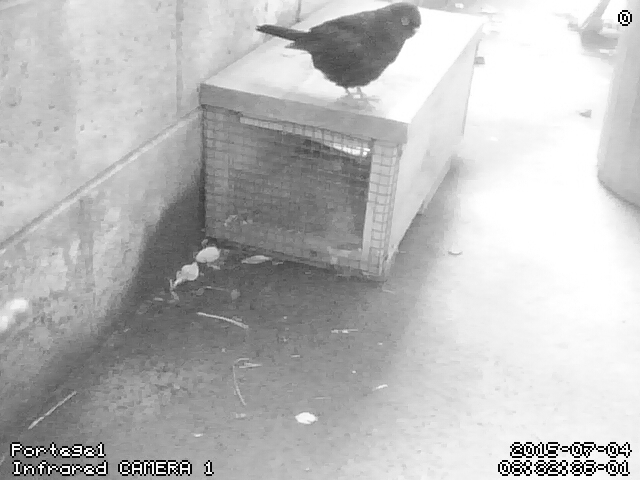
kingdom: Animalia
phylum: Chordata
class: Aves
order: Passeriformes
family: Turdidae
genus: Turdus
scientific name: Turdus merula
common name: Common blackbird
